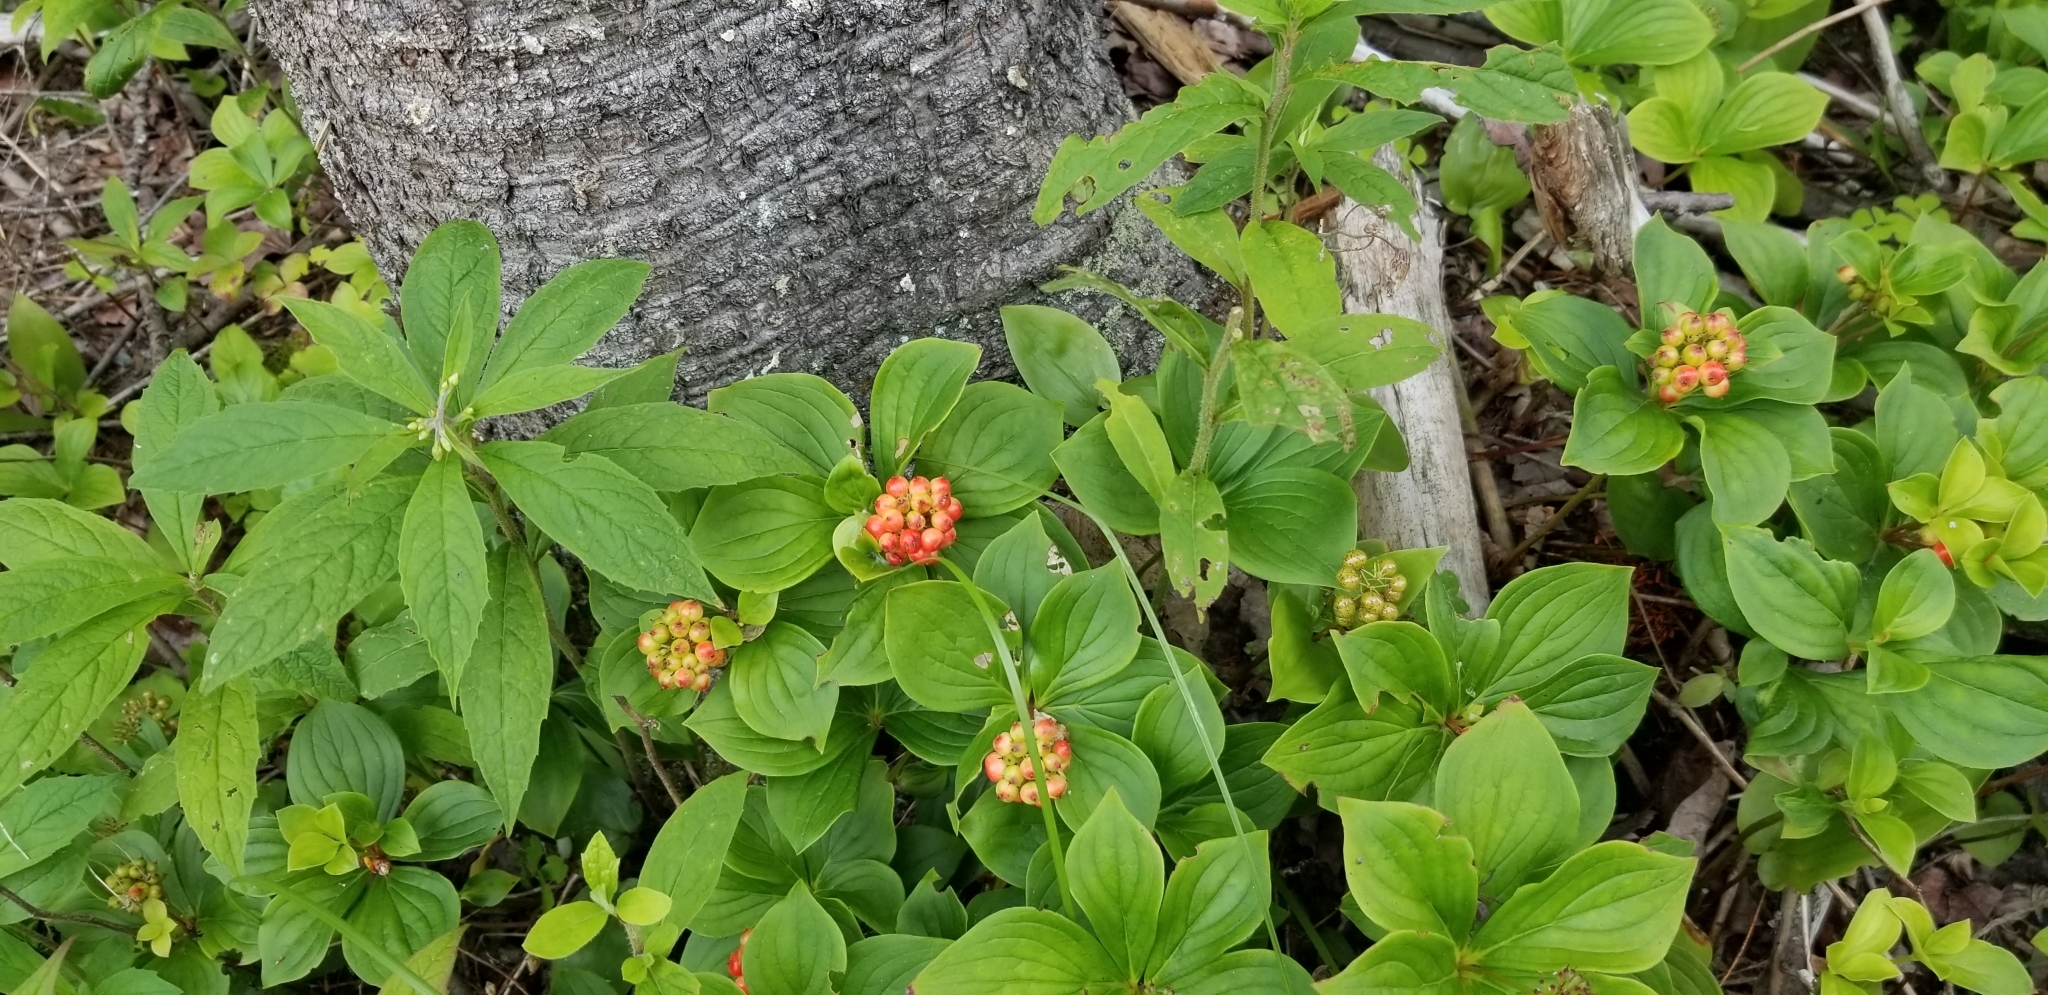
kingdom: Plantae
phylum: Tracheophyta
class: Magnoliopsida
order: Cornales
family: Cornaceae
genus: Cornus
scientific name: Cornus canadensis
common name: Creeping dogwood
